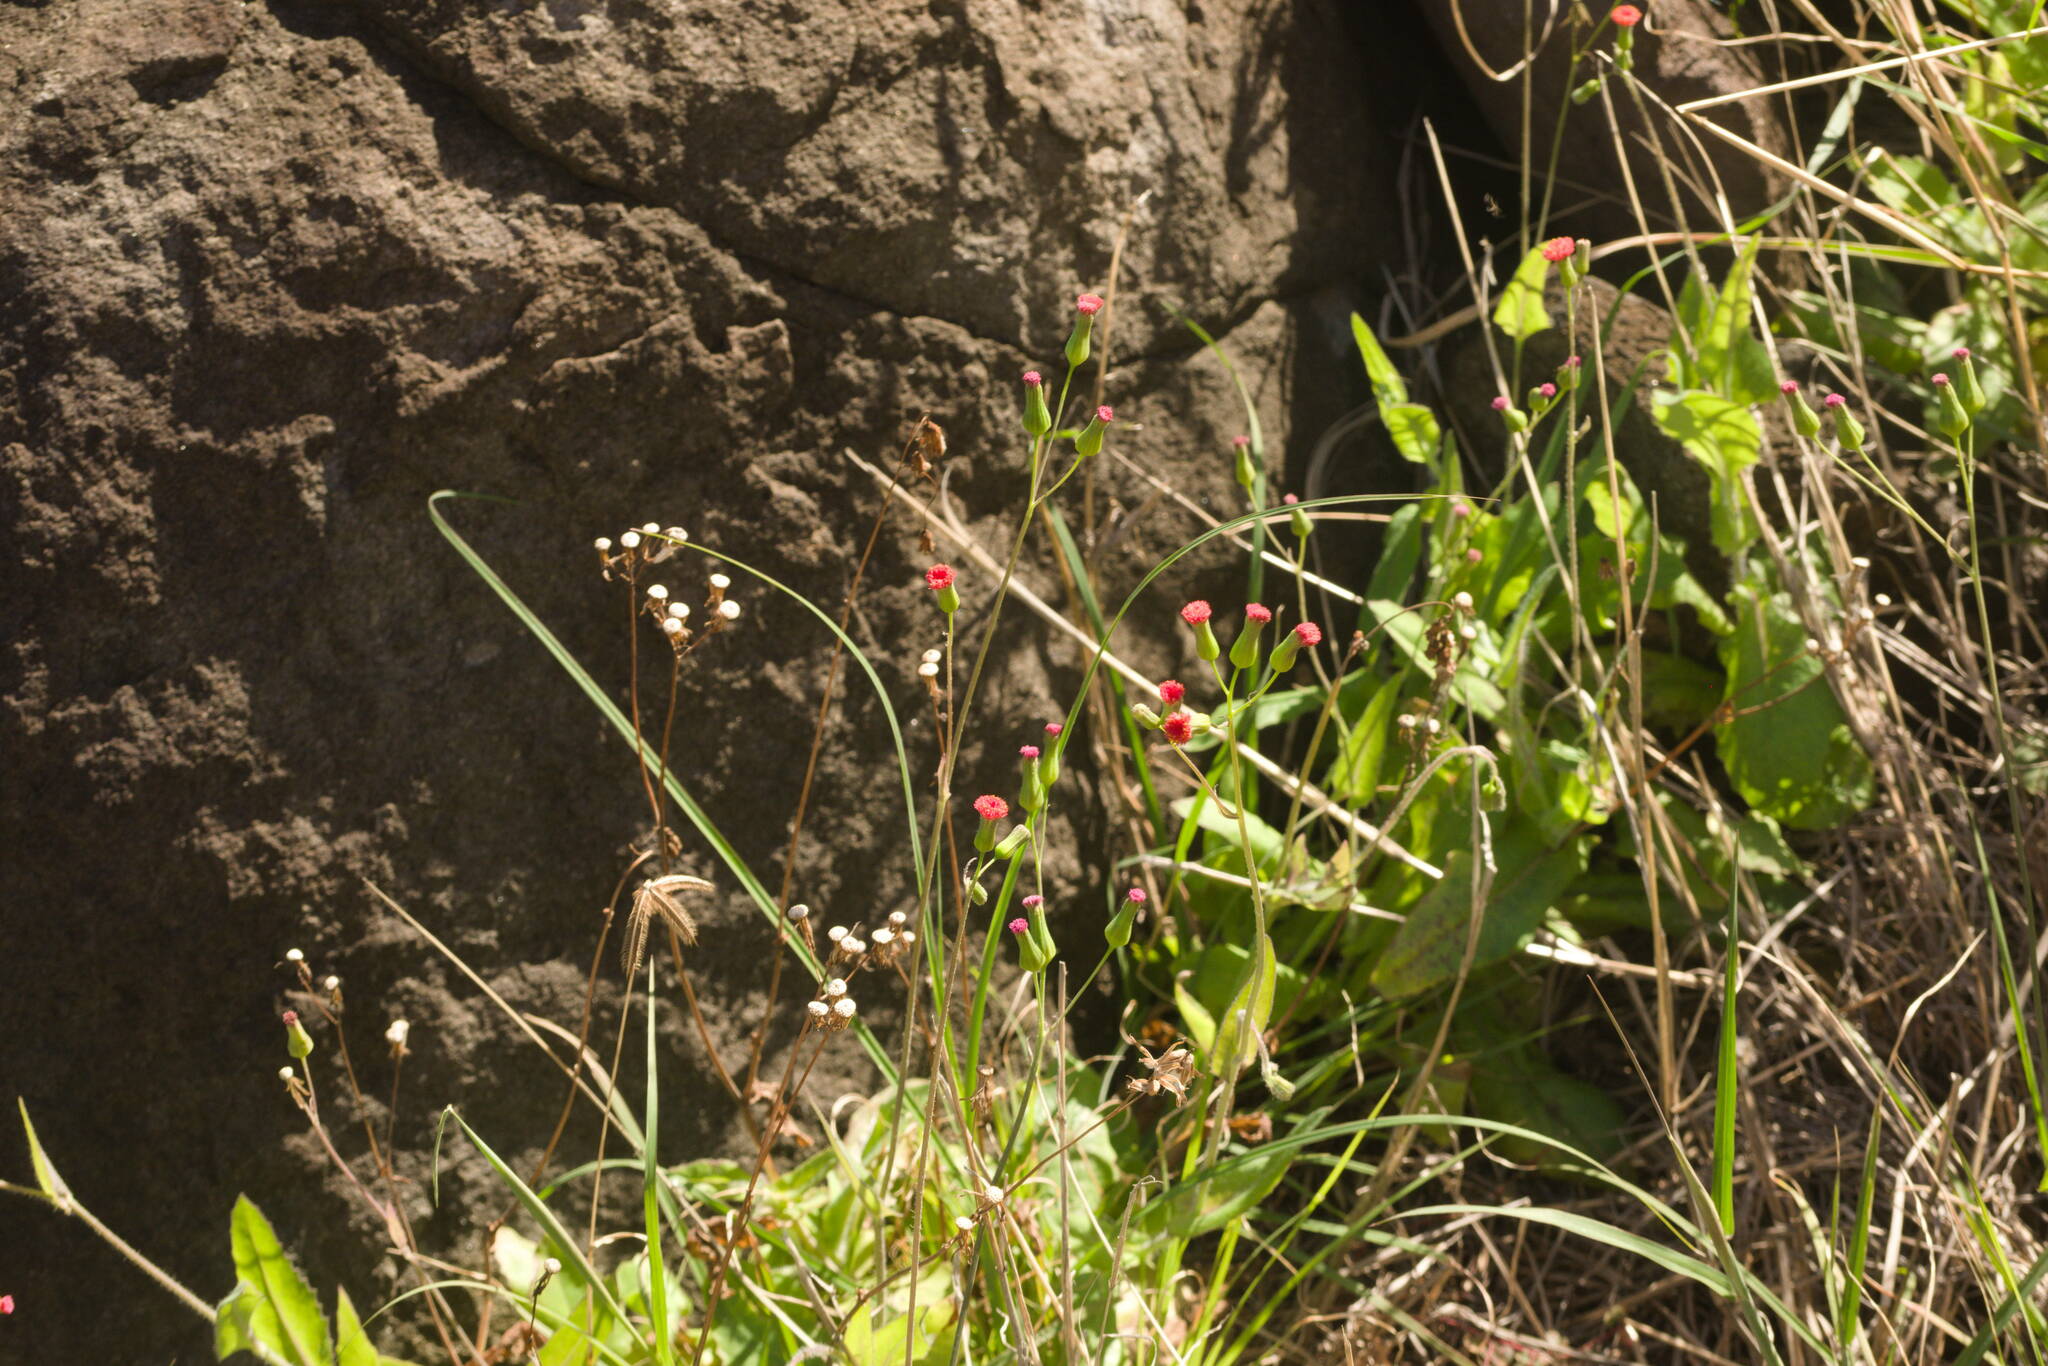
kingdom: Plantae
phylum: Tracheophyta
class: Magnoliopsida
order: Asterales
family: Asteraceae
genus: Emilia
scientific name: Emilia fosbergii
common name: Florida tasselflower
